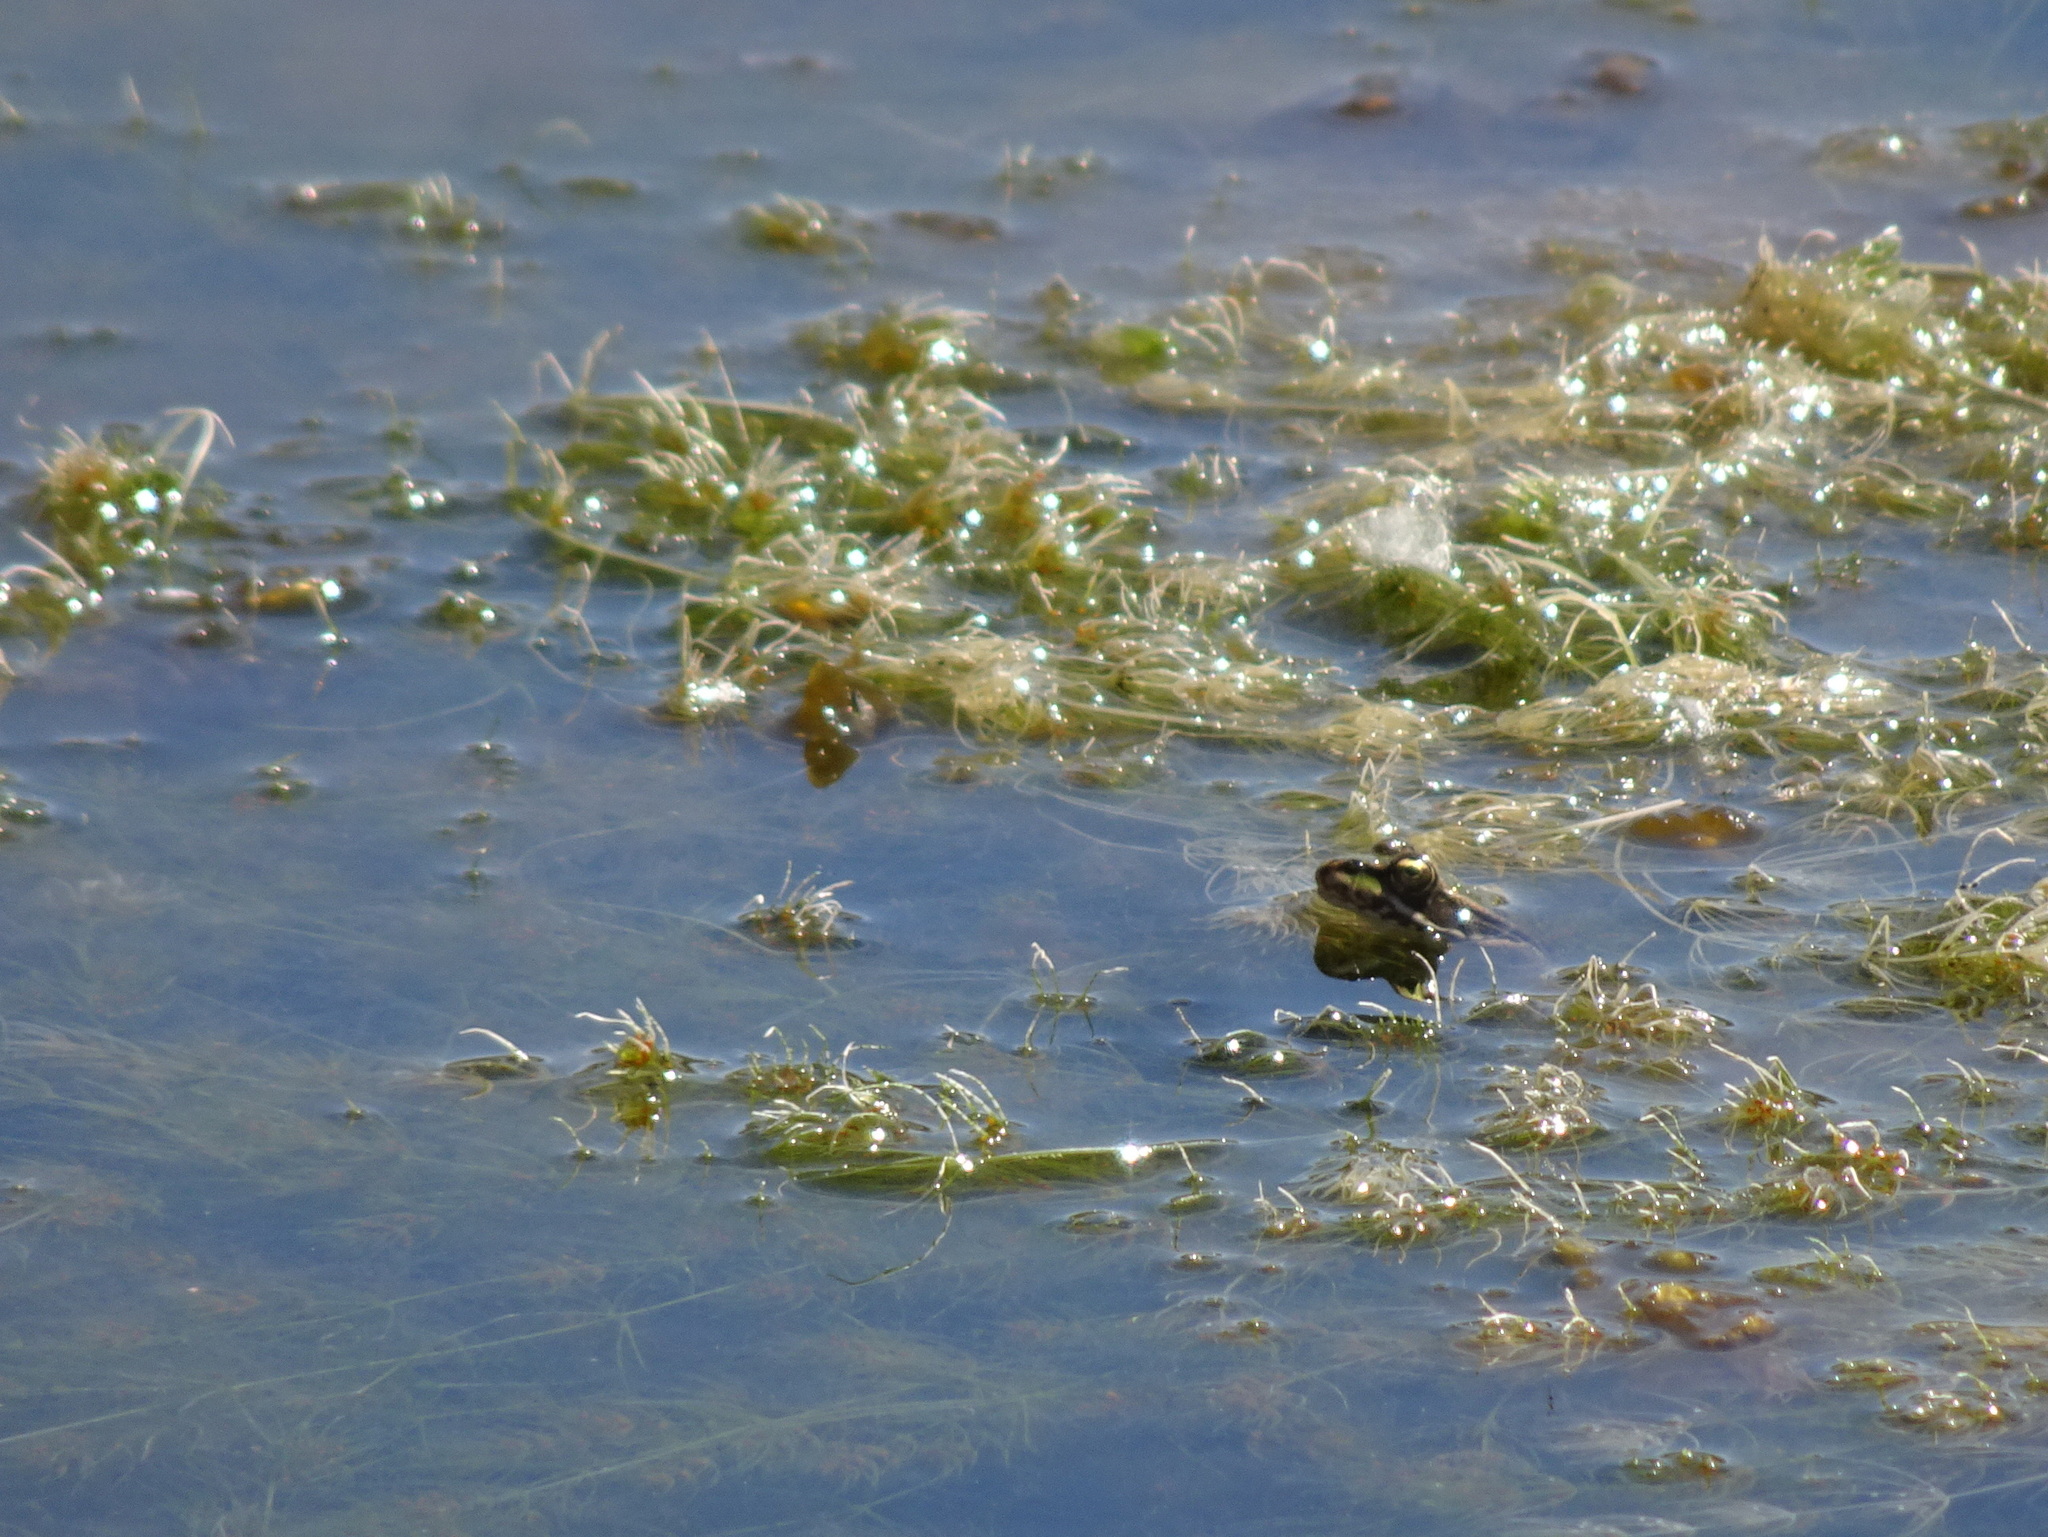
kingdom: Animalia
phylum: Chordata
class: Amphibia
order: Anura
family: Ranidae
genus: Pelophylax
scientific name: Pelophylax
